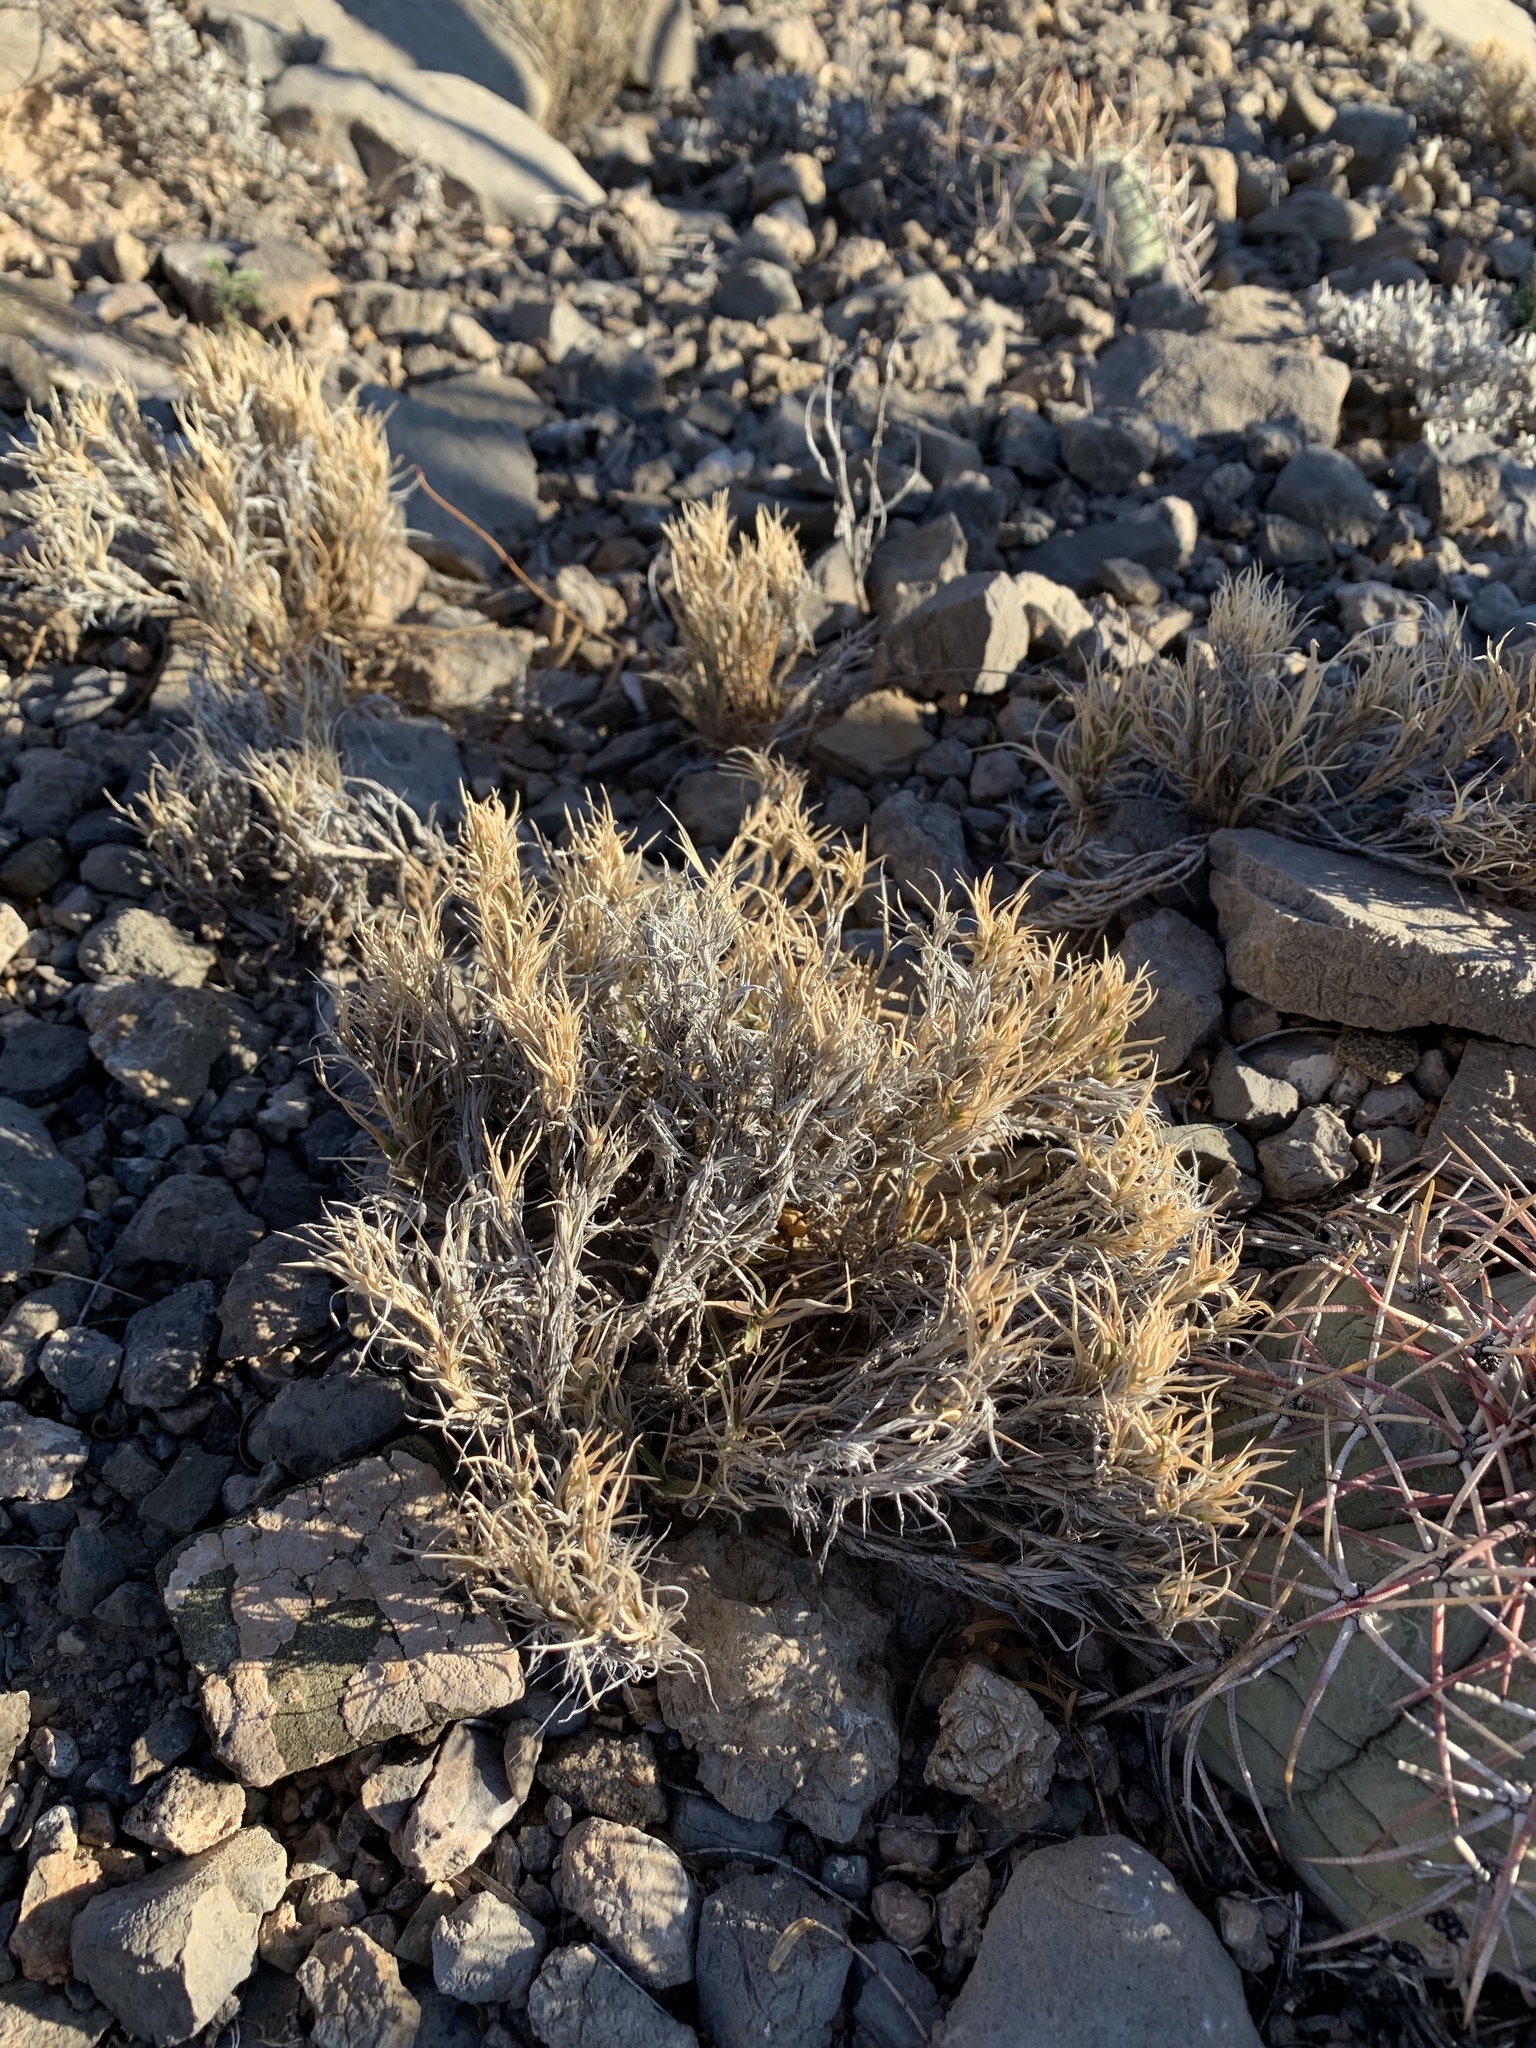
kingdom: Plantae
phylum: Tracheophyta
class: Liliopsida
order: Poales
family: Poaceae
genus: Dasyochloa
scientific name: Dasyochloa pulchella
